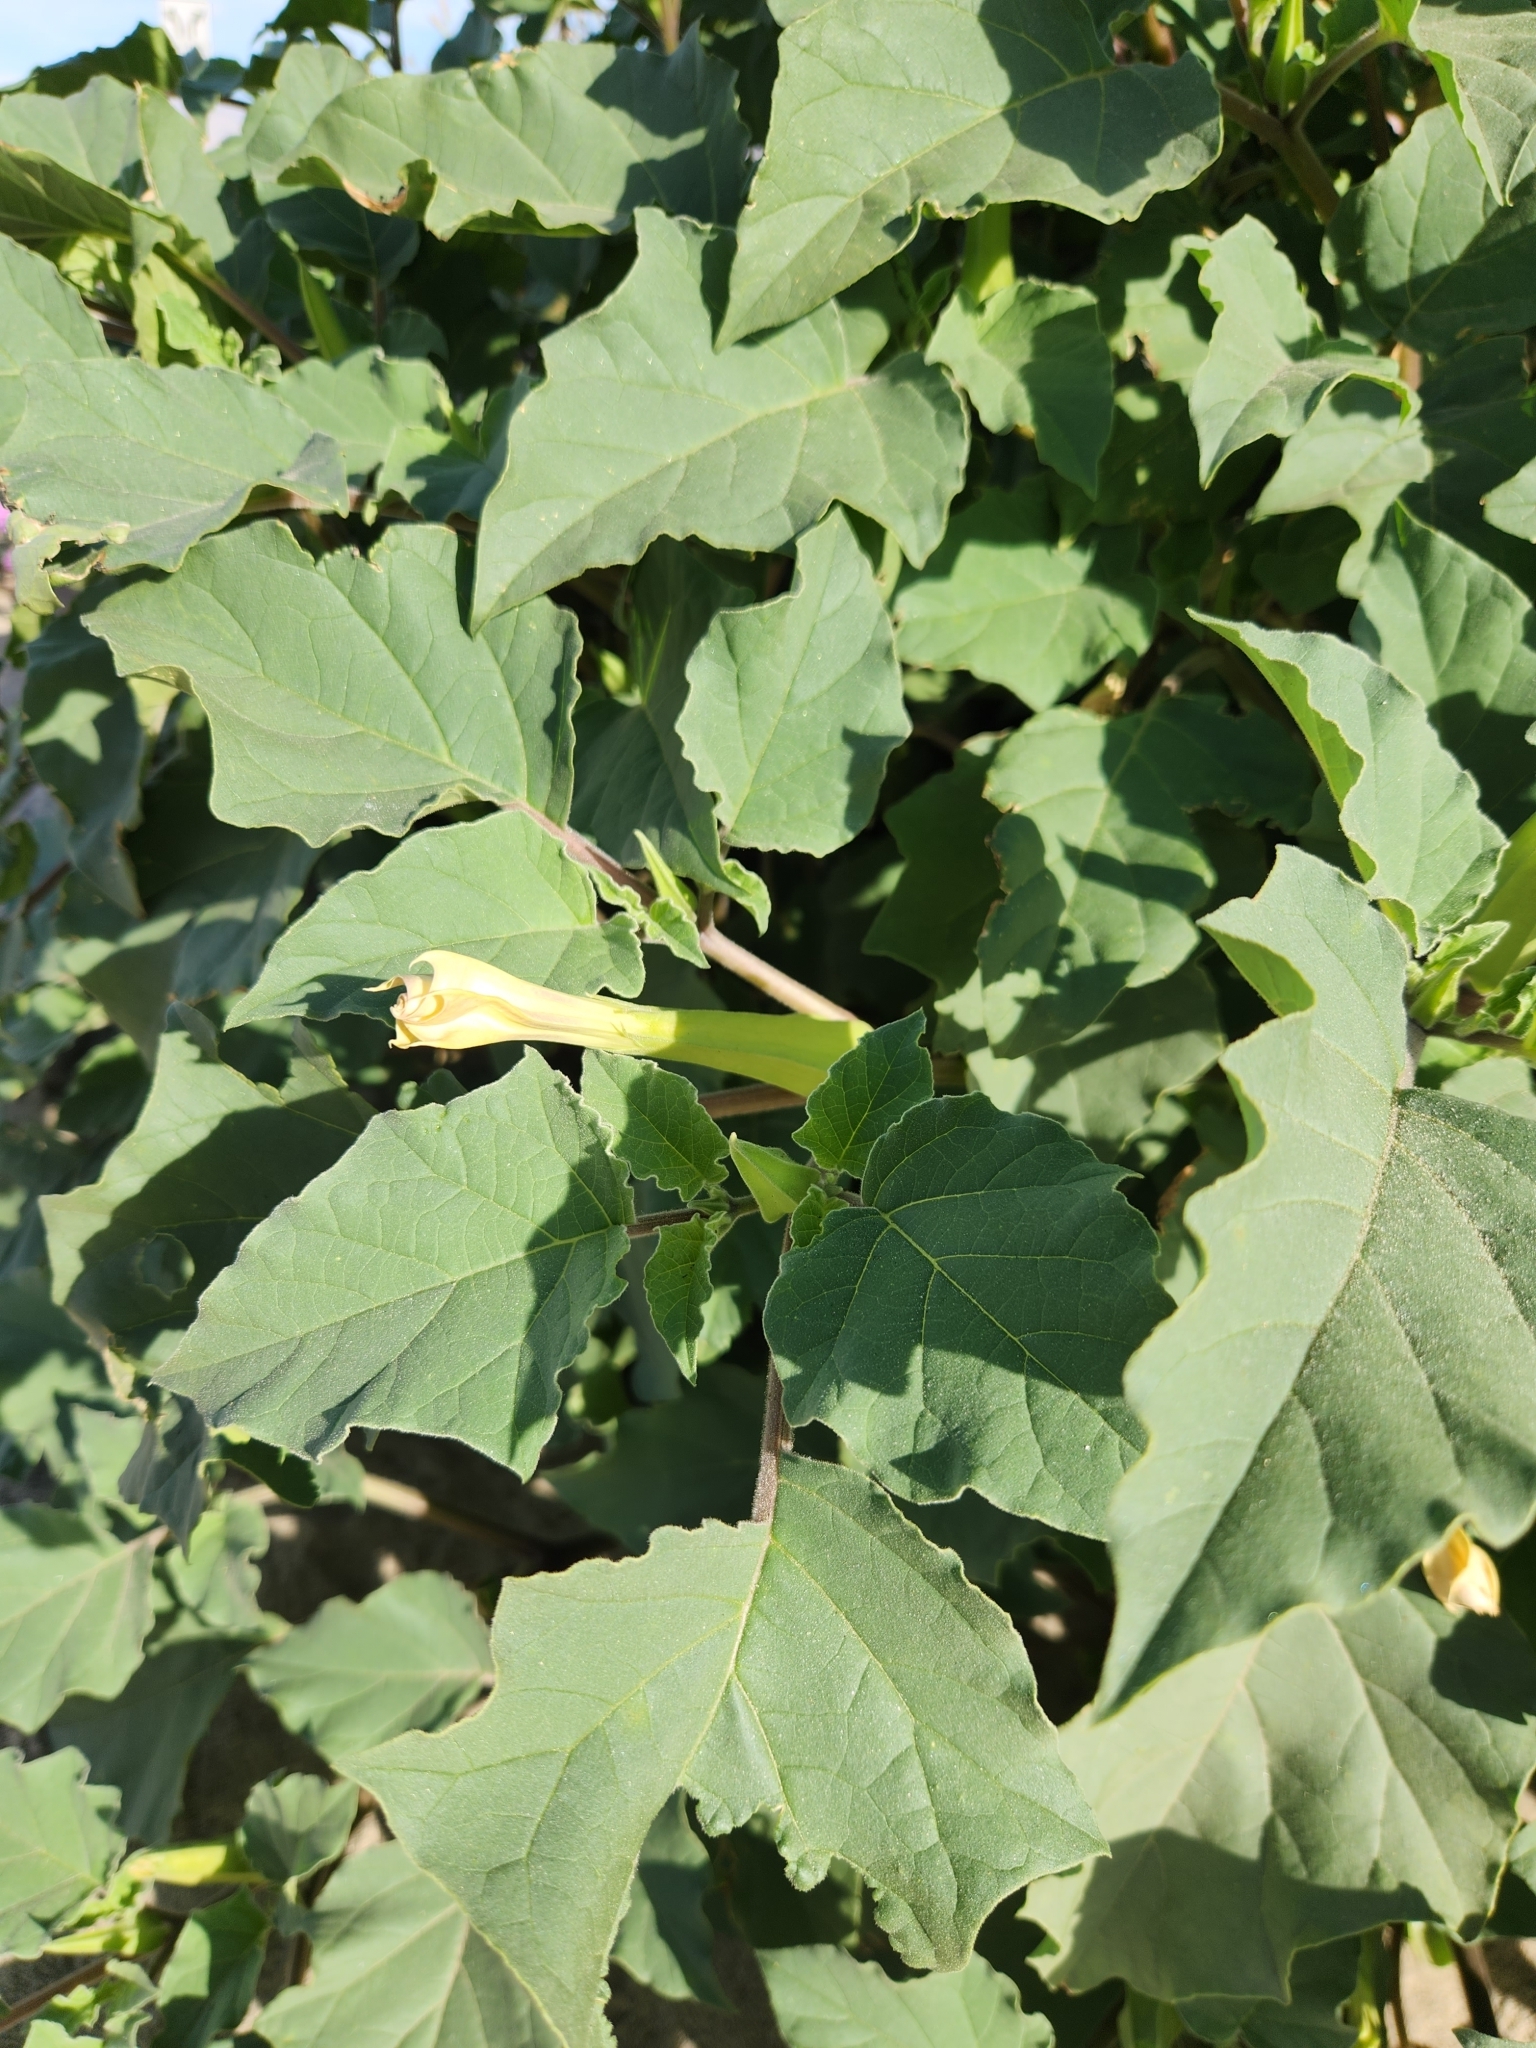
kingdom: Plantae
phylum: Tracheophyta
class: Magnoliopsida
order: Solanales
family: Solanaceae
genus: Datura
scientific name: Datura discolor
